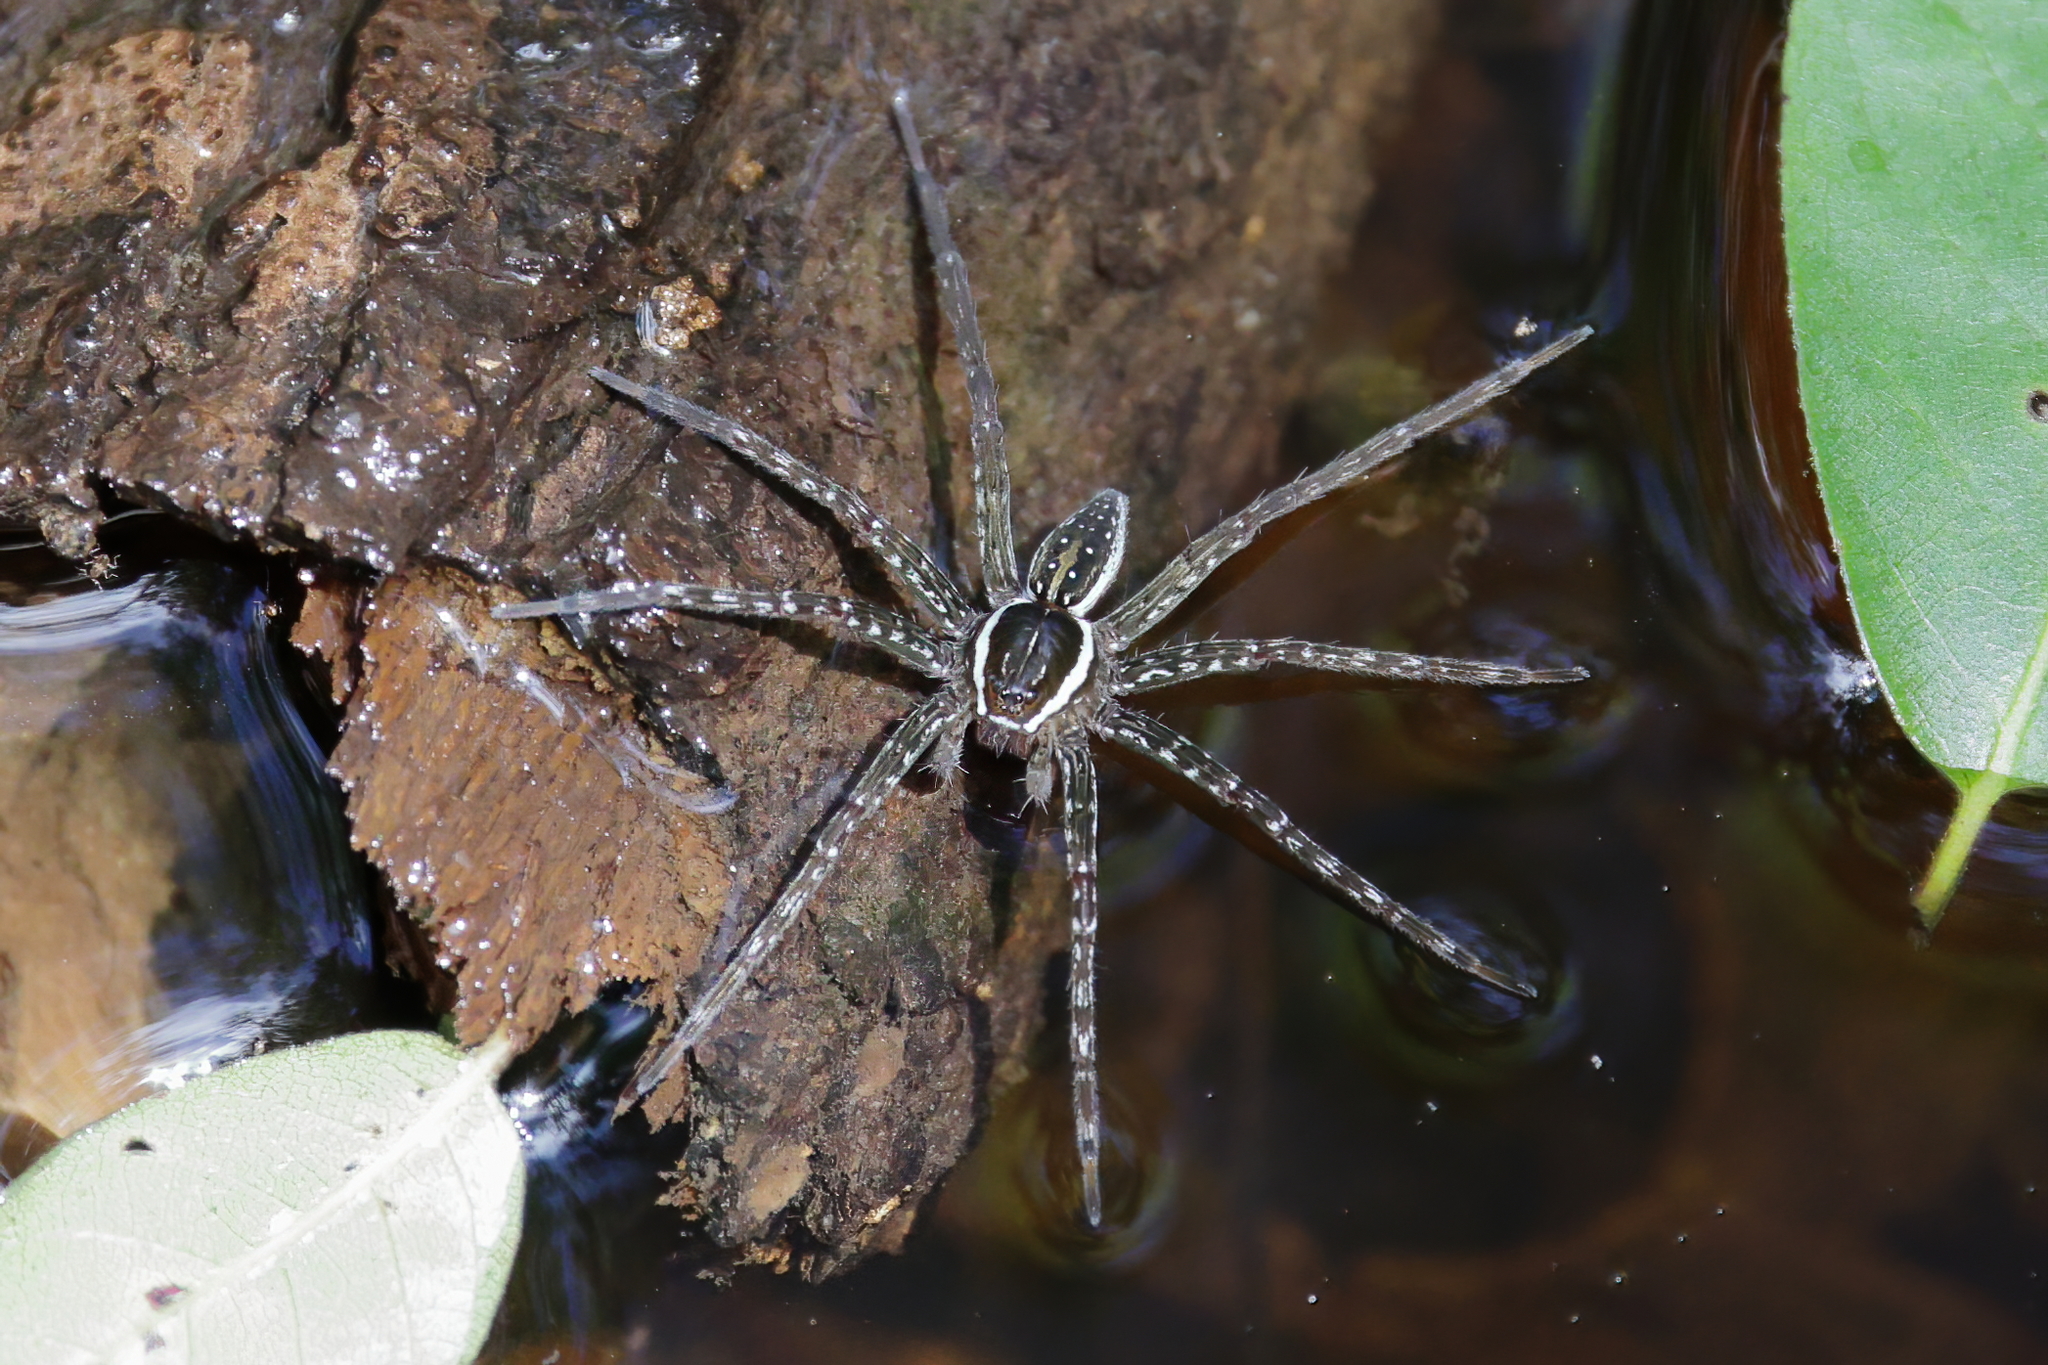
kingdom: Animalia
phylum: Arthropoda
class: Arachnida
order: Araneae
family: Pisauridae
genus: Dolomedes
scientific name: Dolomedes triton
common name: Six-spotted fishing spider
